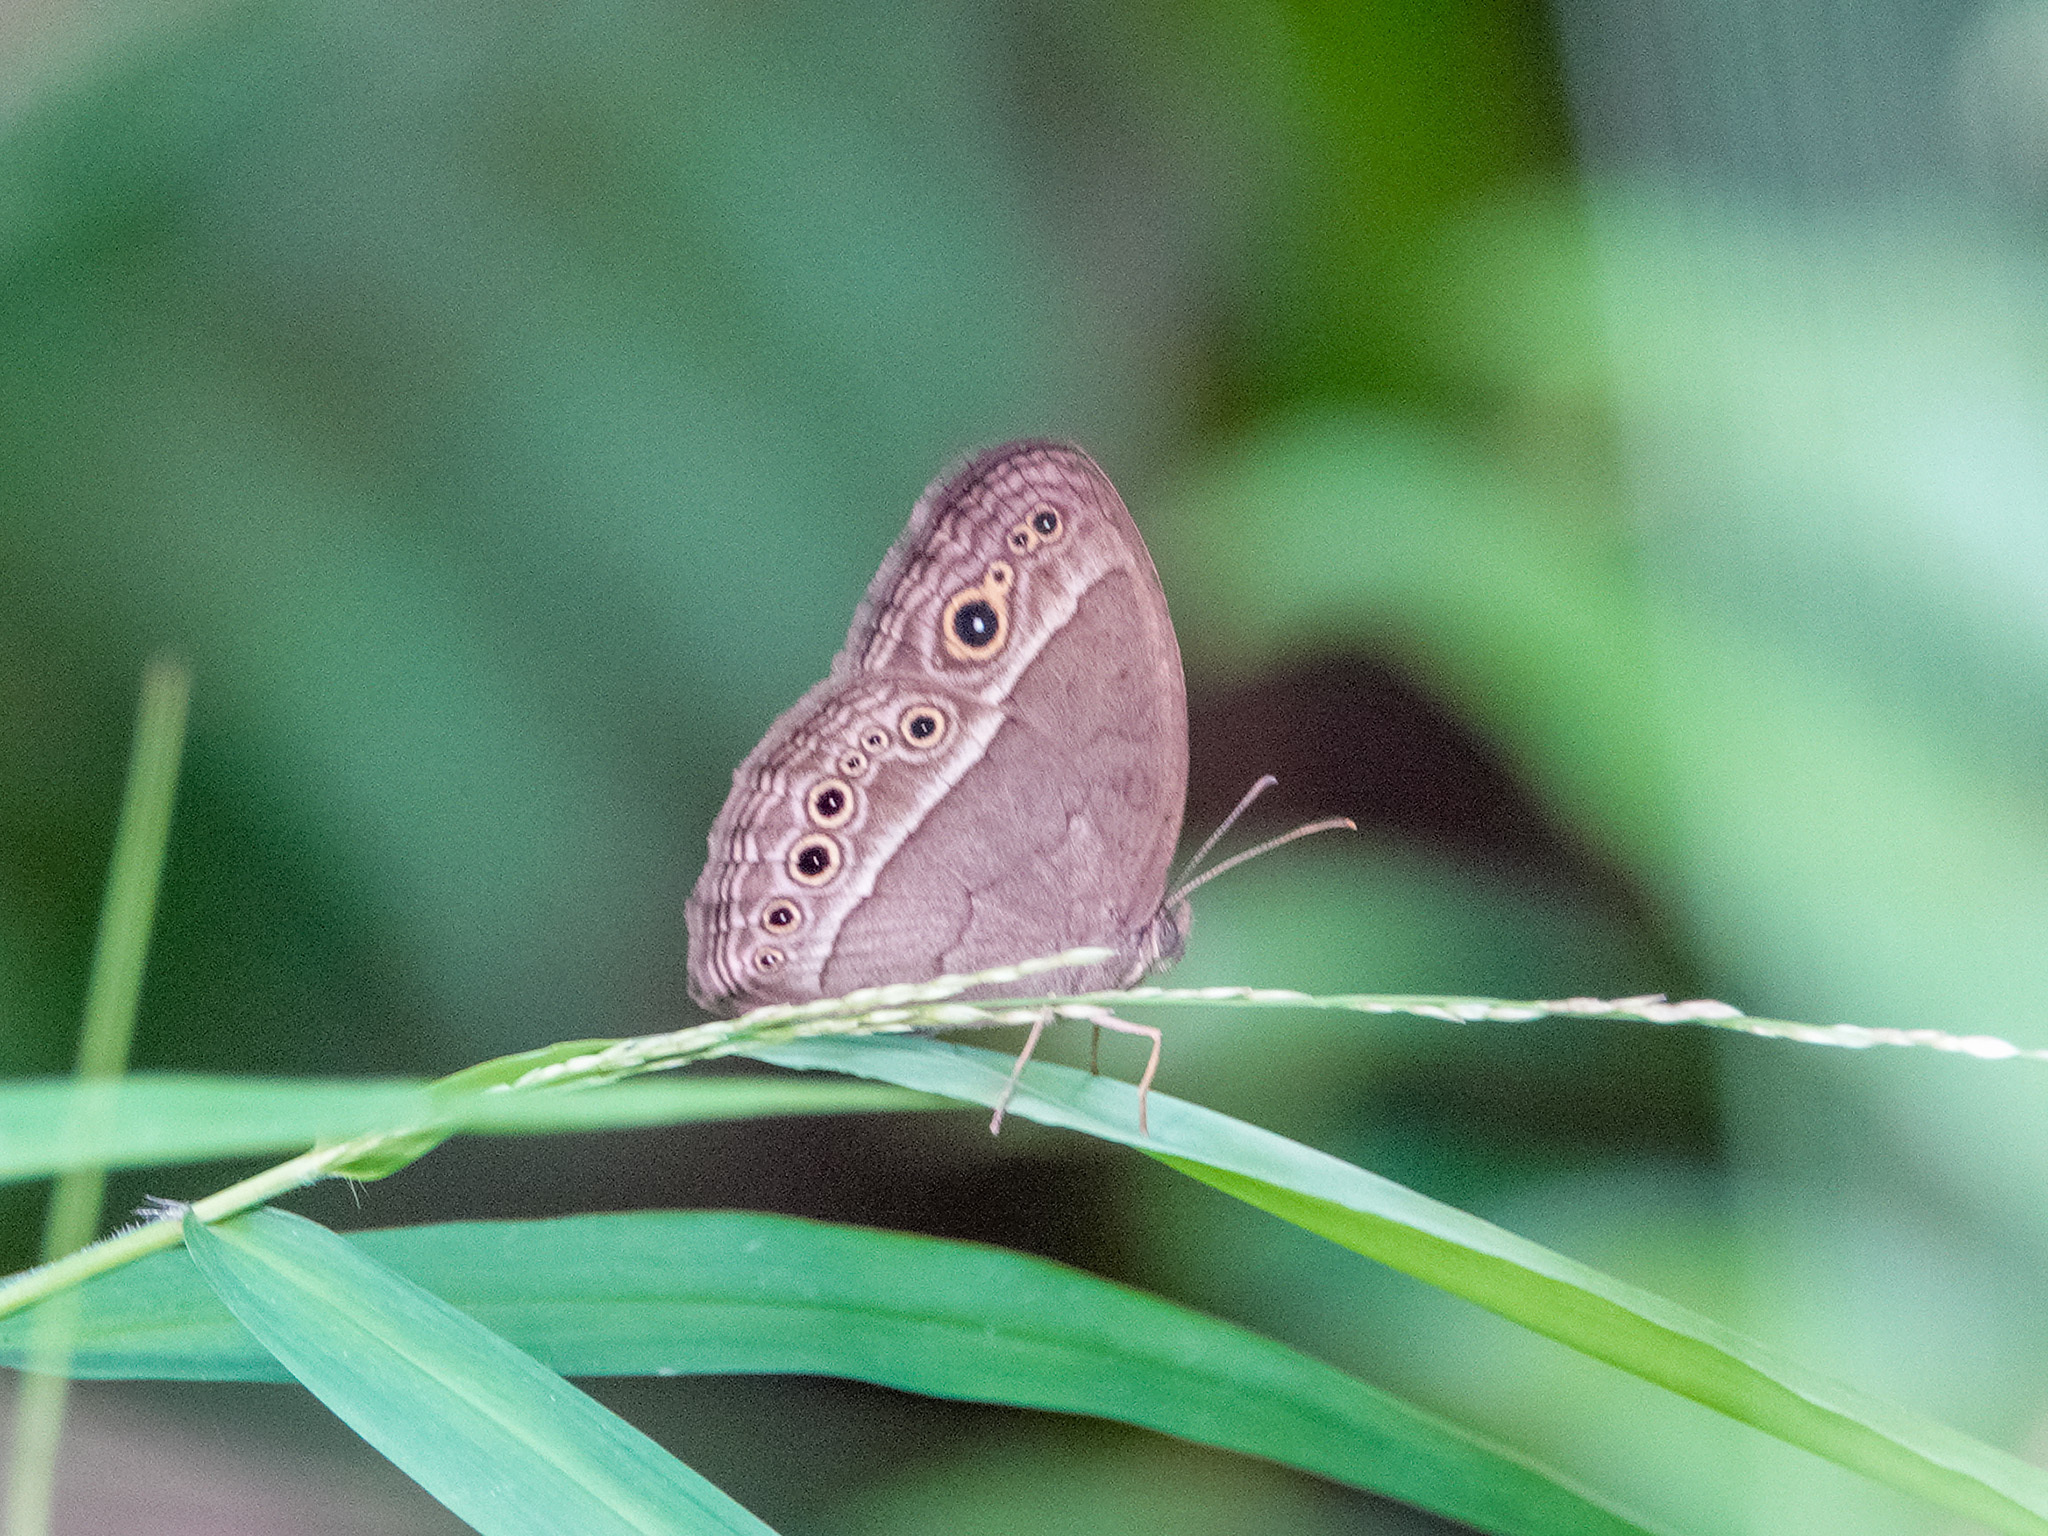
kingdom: Animalia
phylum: Arthropoda
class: Insecta
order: Lepidoptera
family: Nymphalidae
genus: Mycalesis
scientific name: Mycalesis perseoides
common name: Burmese bushbrown
